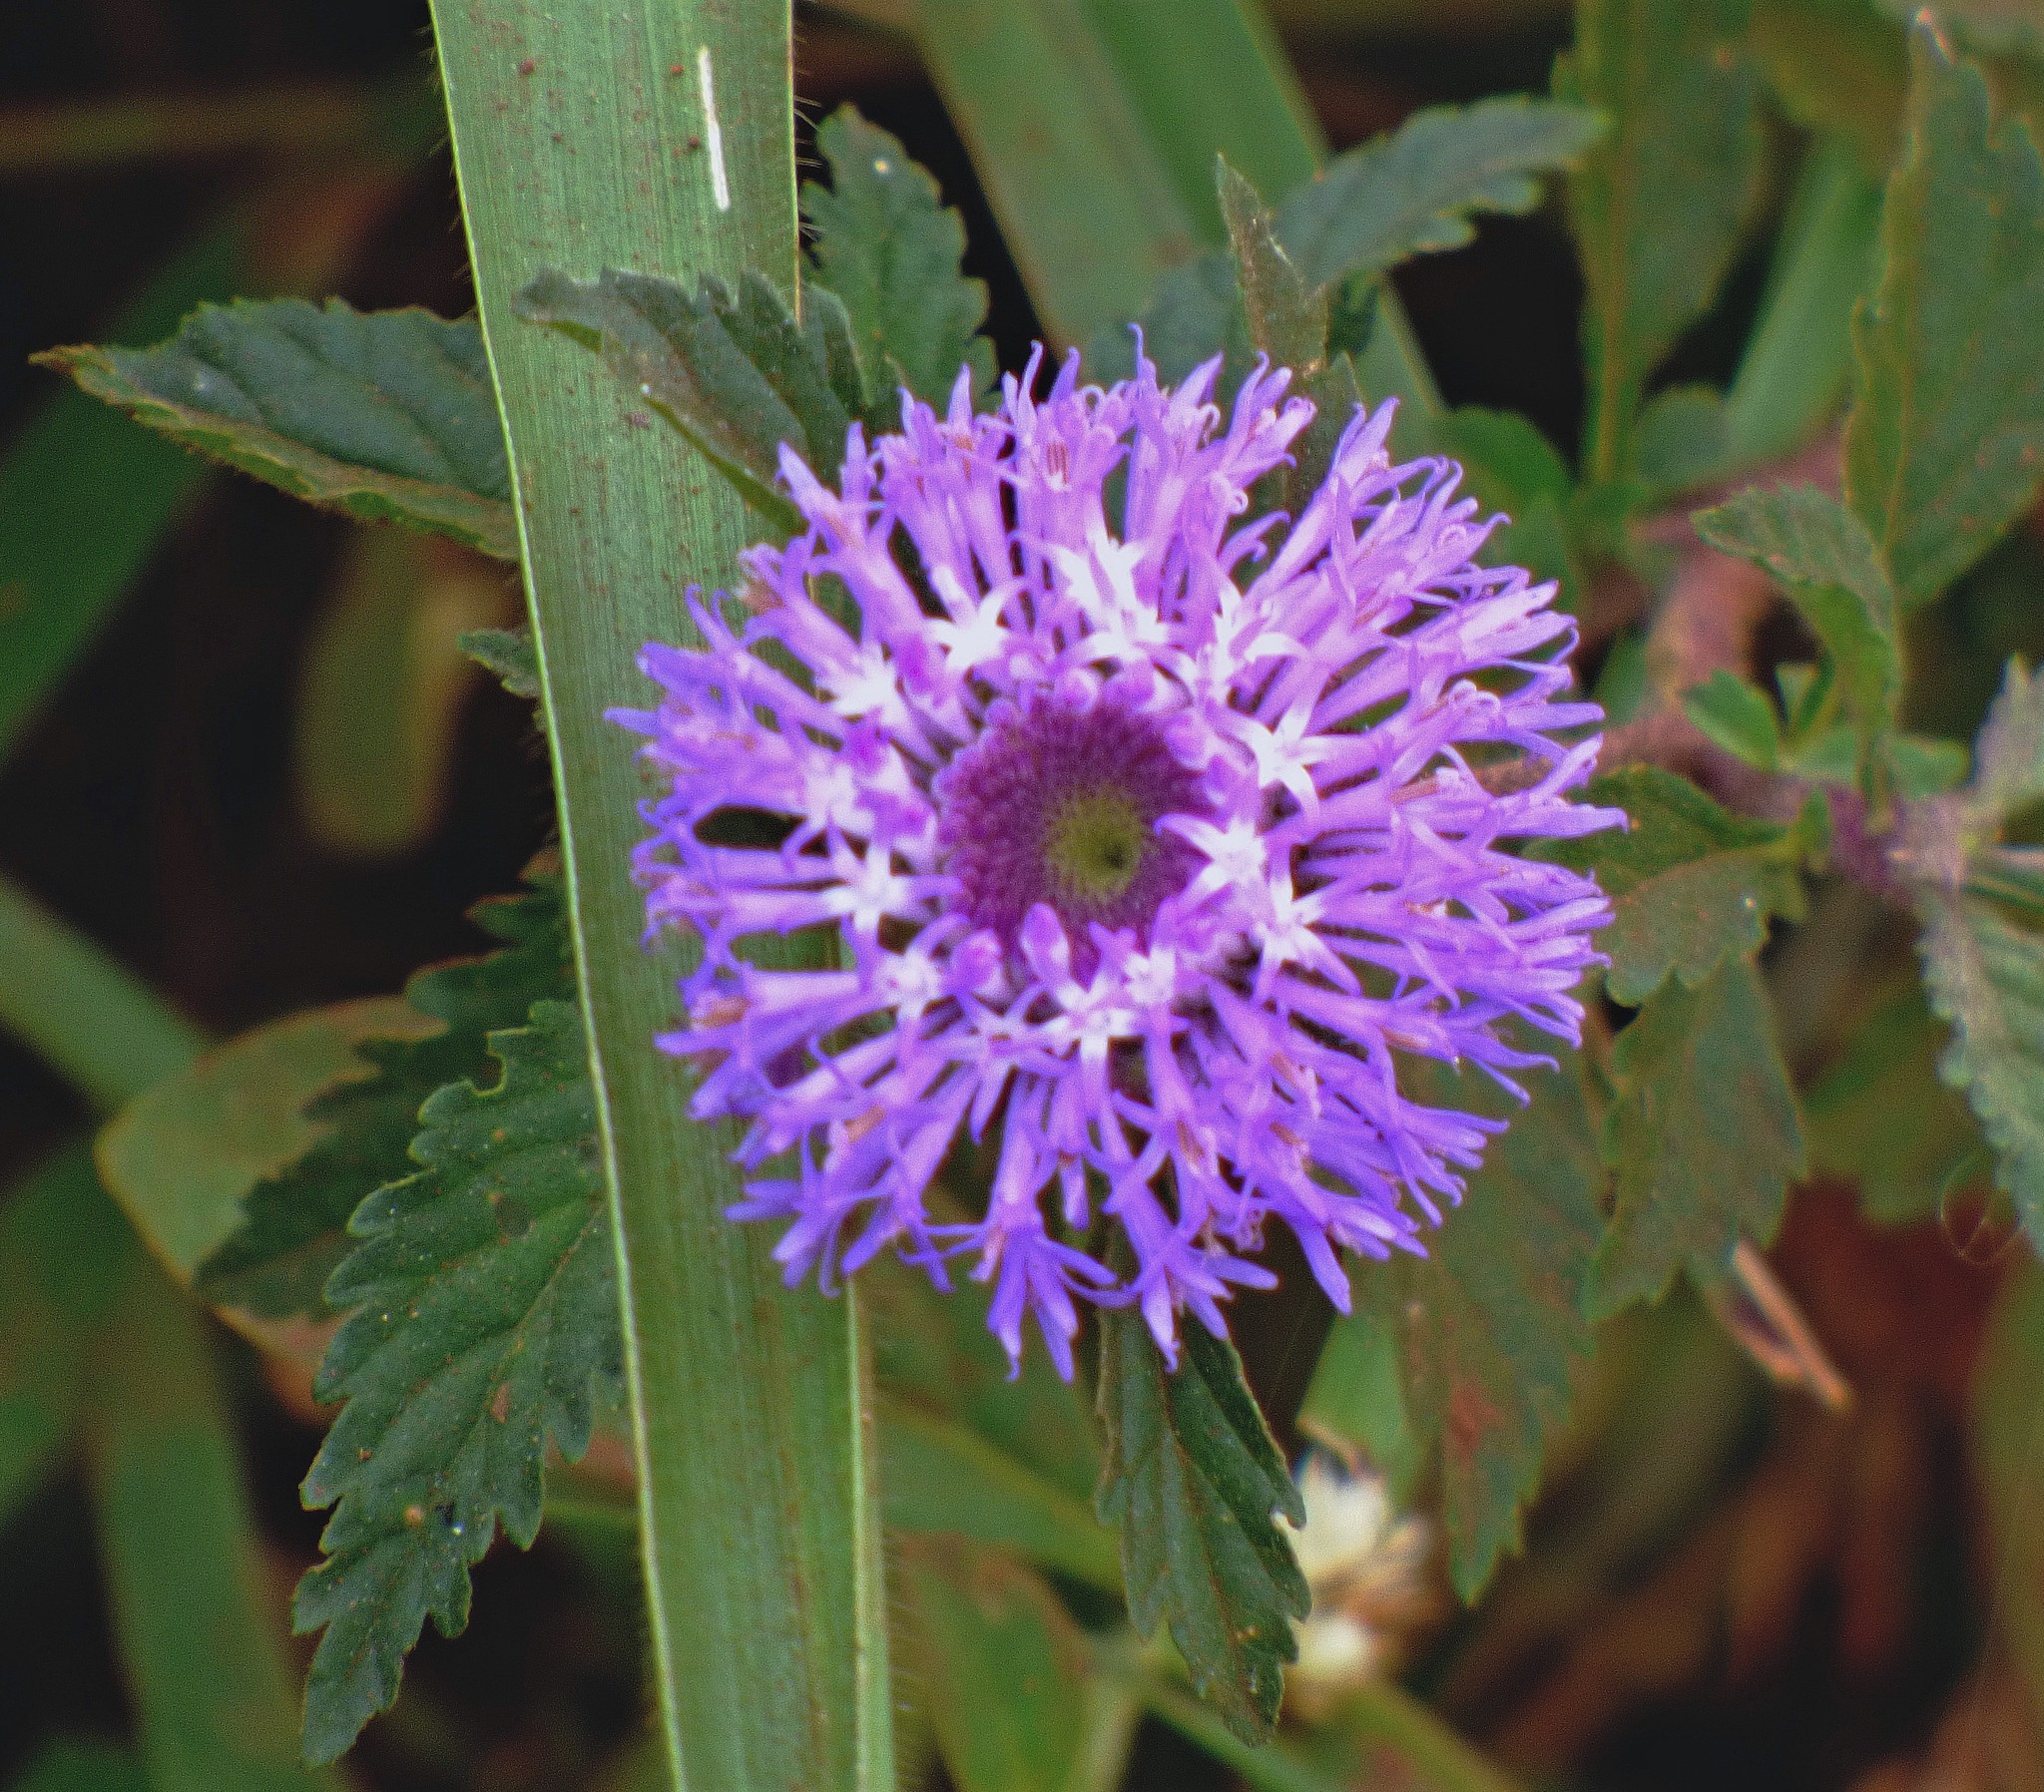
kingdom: Plantae
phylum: Tracheophyta
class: Magnoliopsida
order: Asterales
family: Asteraceae
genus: Centratherum
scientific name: Centratherum punctatum
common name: Larkdaisy
